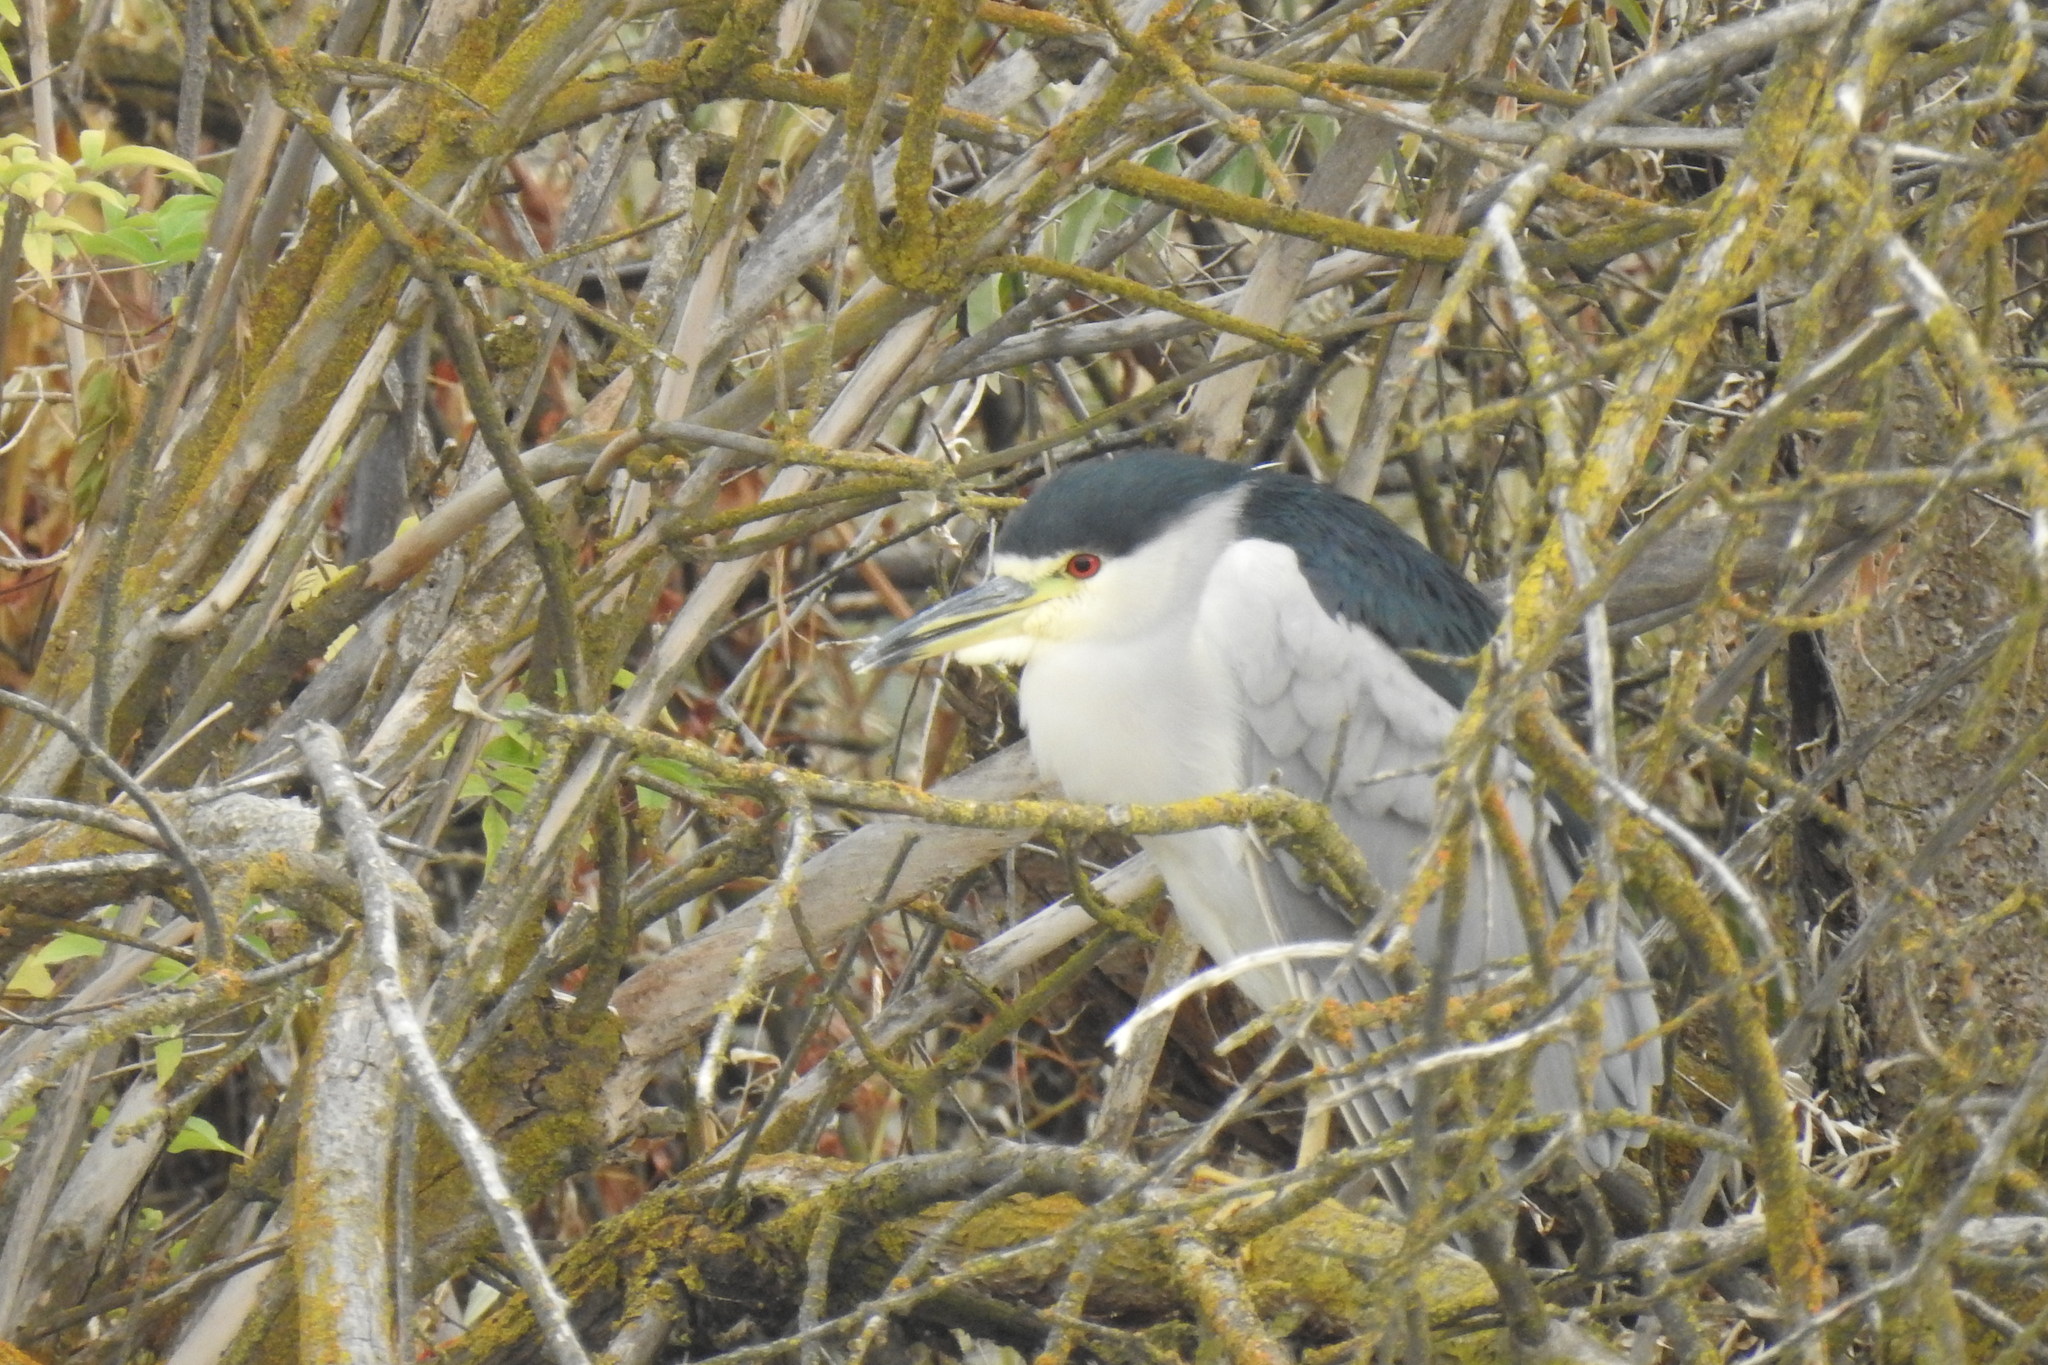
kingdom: Animalia
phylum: Chordata
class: Aves
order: Pelecaniformes
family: Ardeidae
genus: Nycticorax
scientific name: Nycticorax nycticorax
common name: Black-crowned night heron
